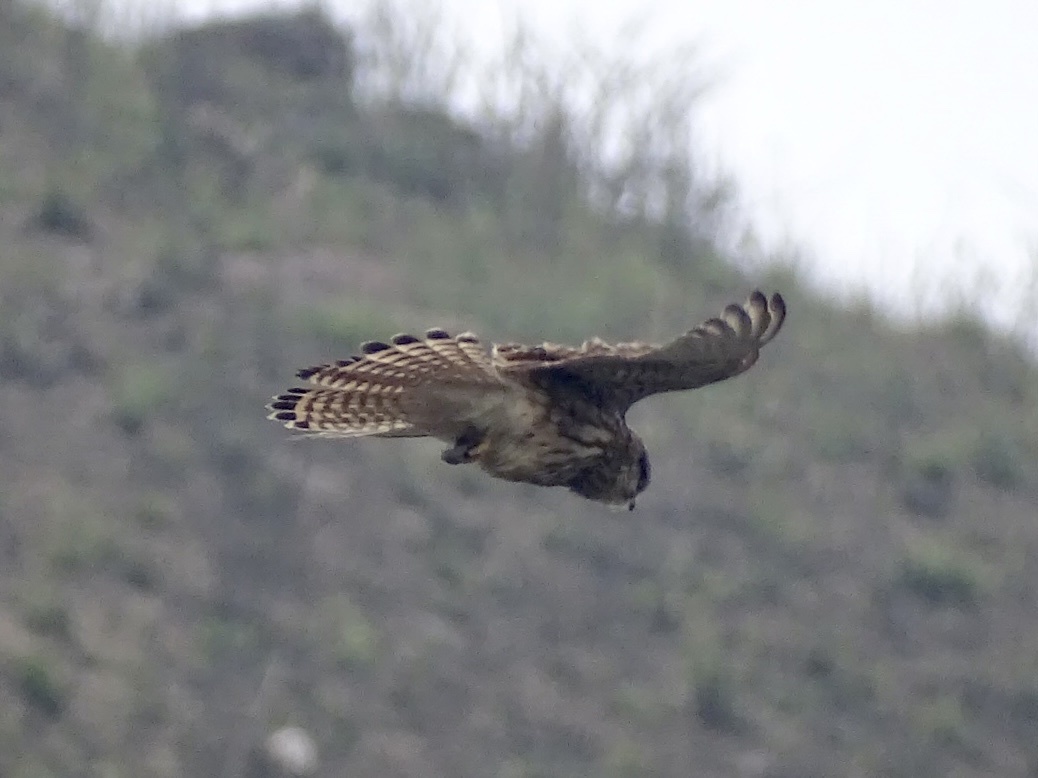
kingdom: Animalia
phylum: Chordata
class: Aves
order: Falconiformes
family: Falconidae
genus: Falco
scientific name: Falco tinnunculus
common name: Common kestrel
